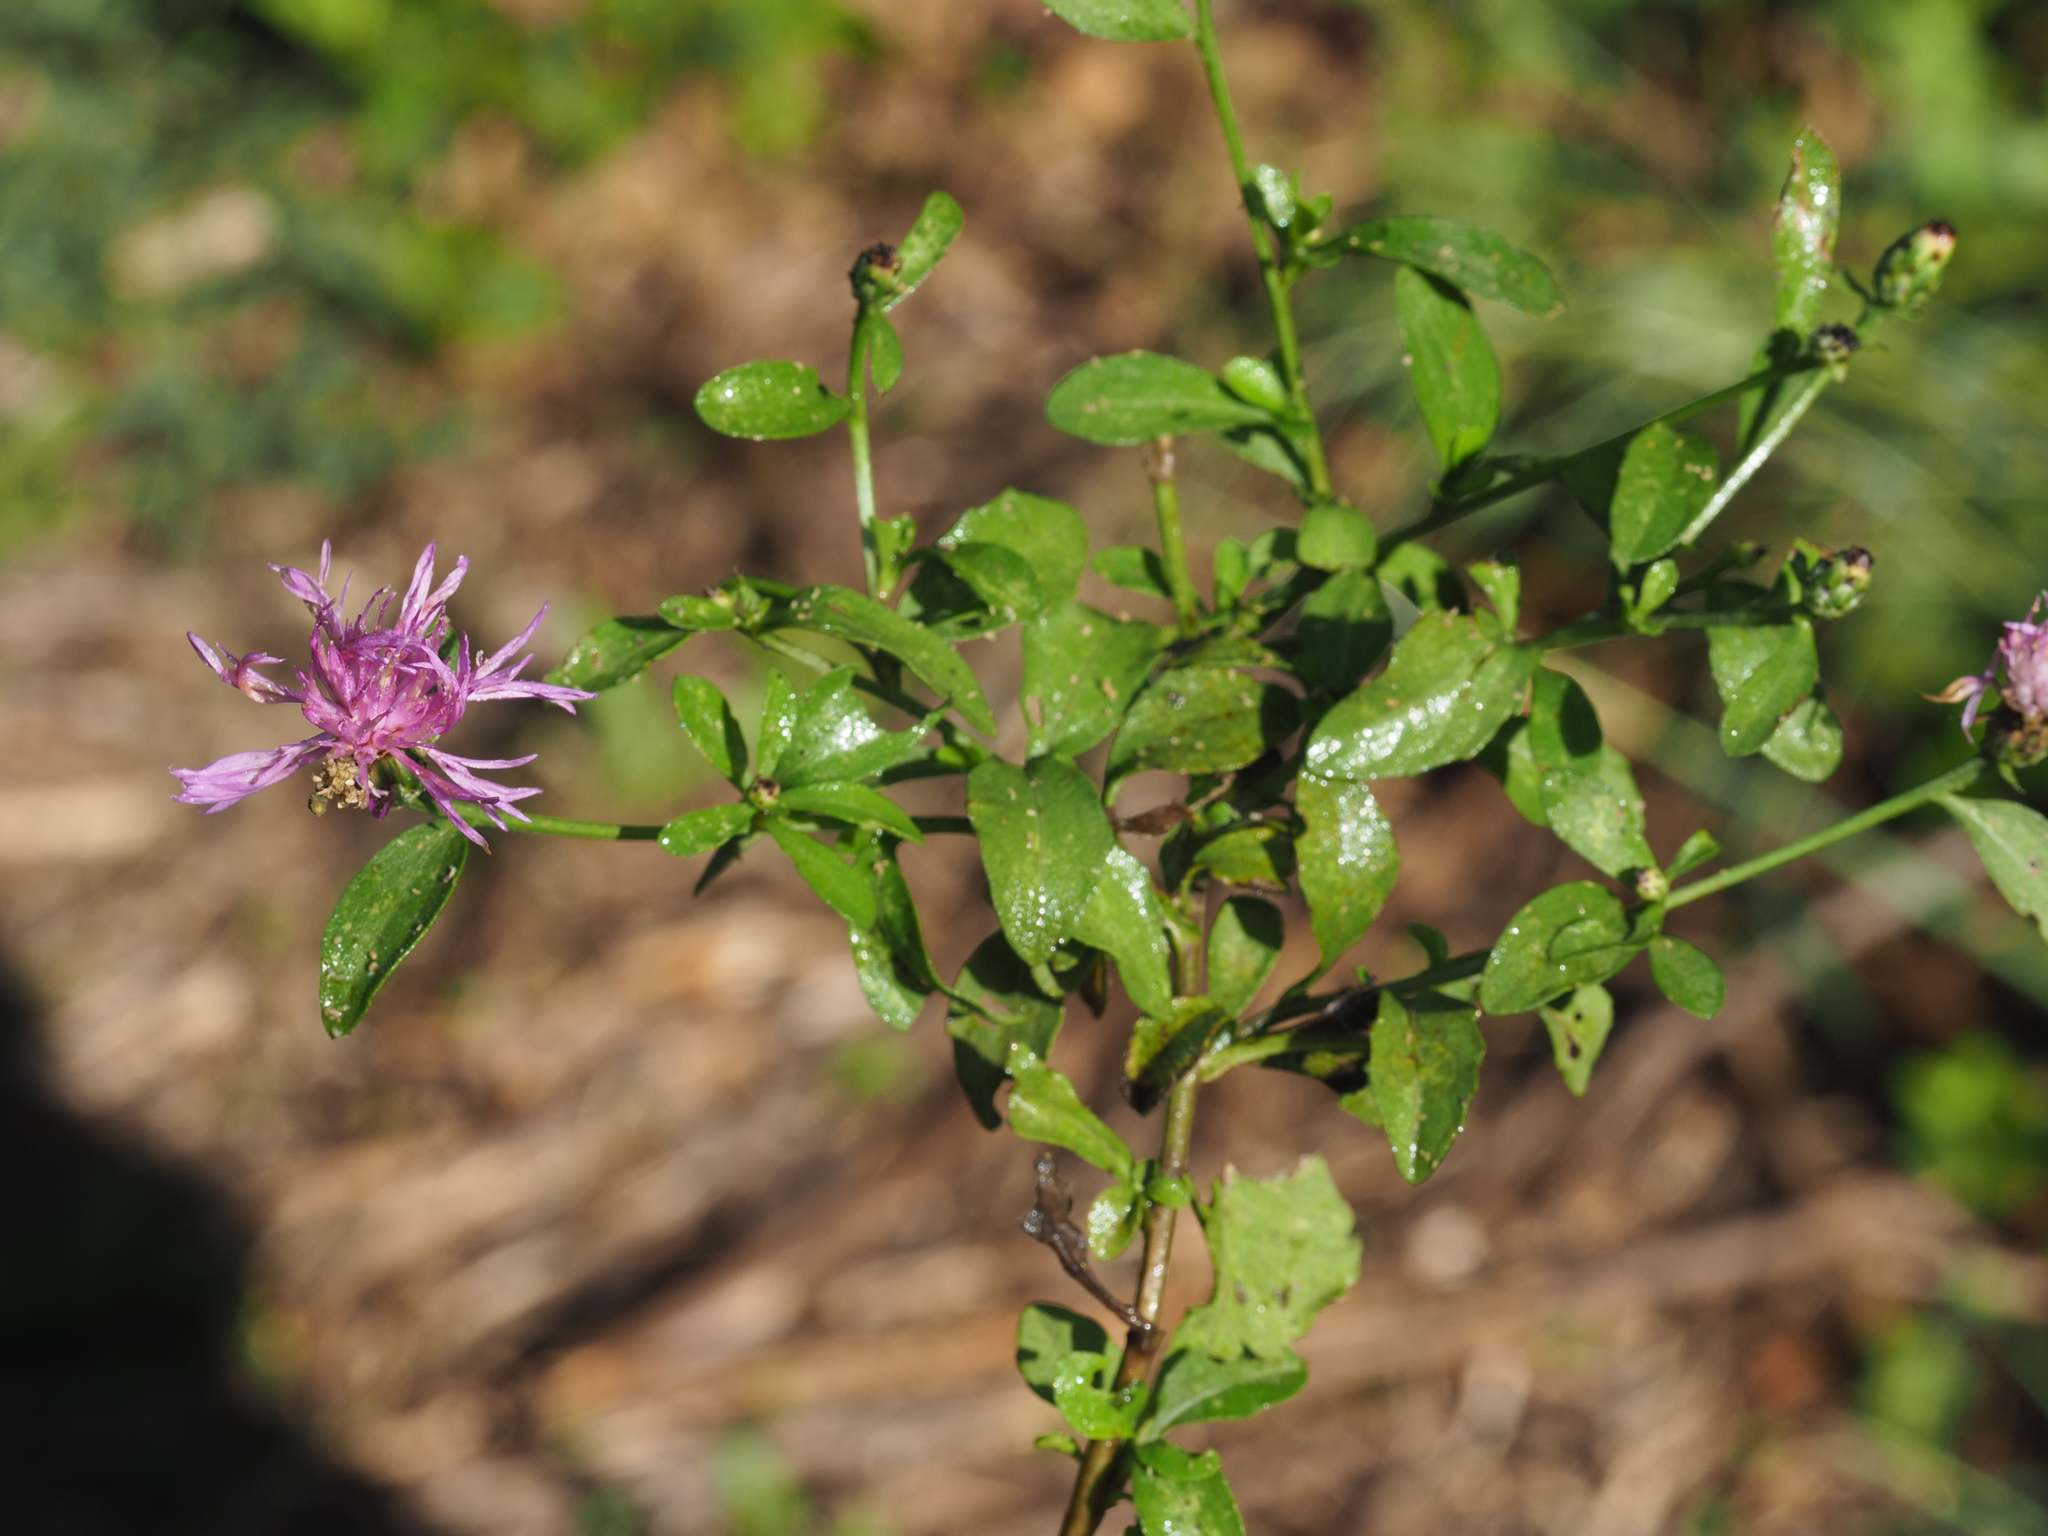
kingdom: Plantae
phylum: Tracheophyta
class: Magnoliopsida
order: Asterales
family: Asteraceae
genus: Centaurea
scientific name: Centaurea nigrescens
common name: Tyrol knapweed
